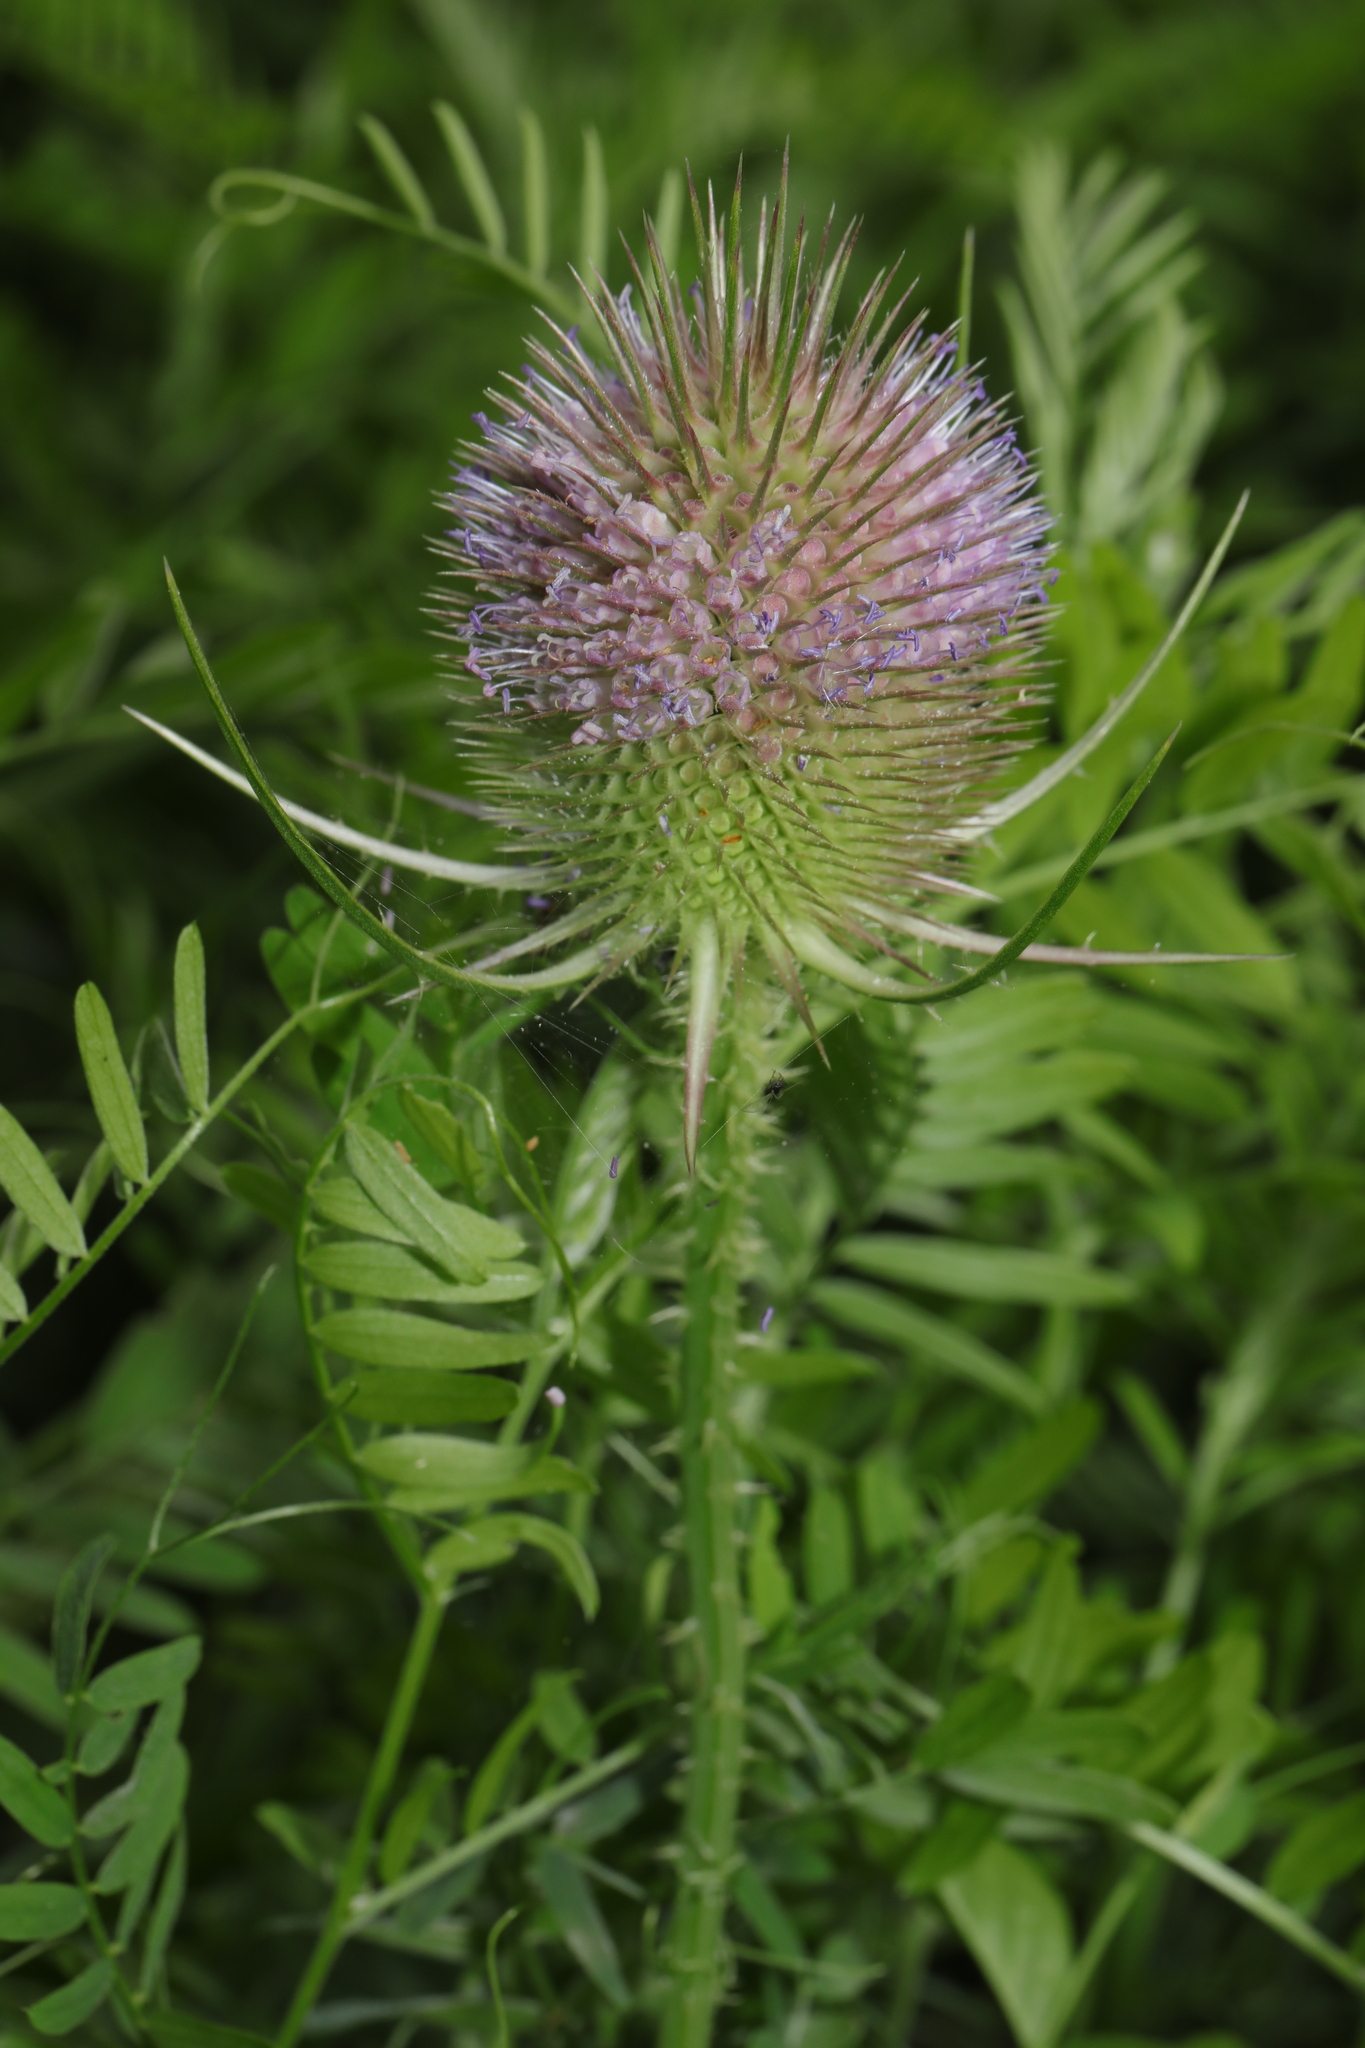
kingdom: Plantae
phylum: Tracheophyta
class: Magnoliopsida
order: Dipsacales
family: Caprifoliaceae
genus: Dipsacus
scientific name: Dipsacus fullonum
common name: Teasel
